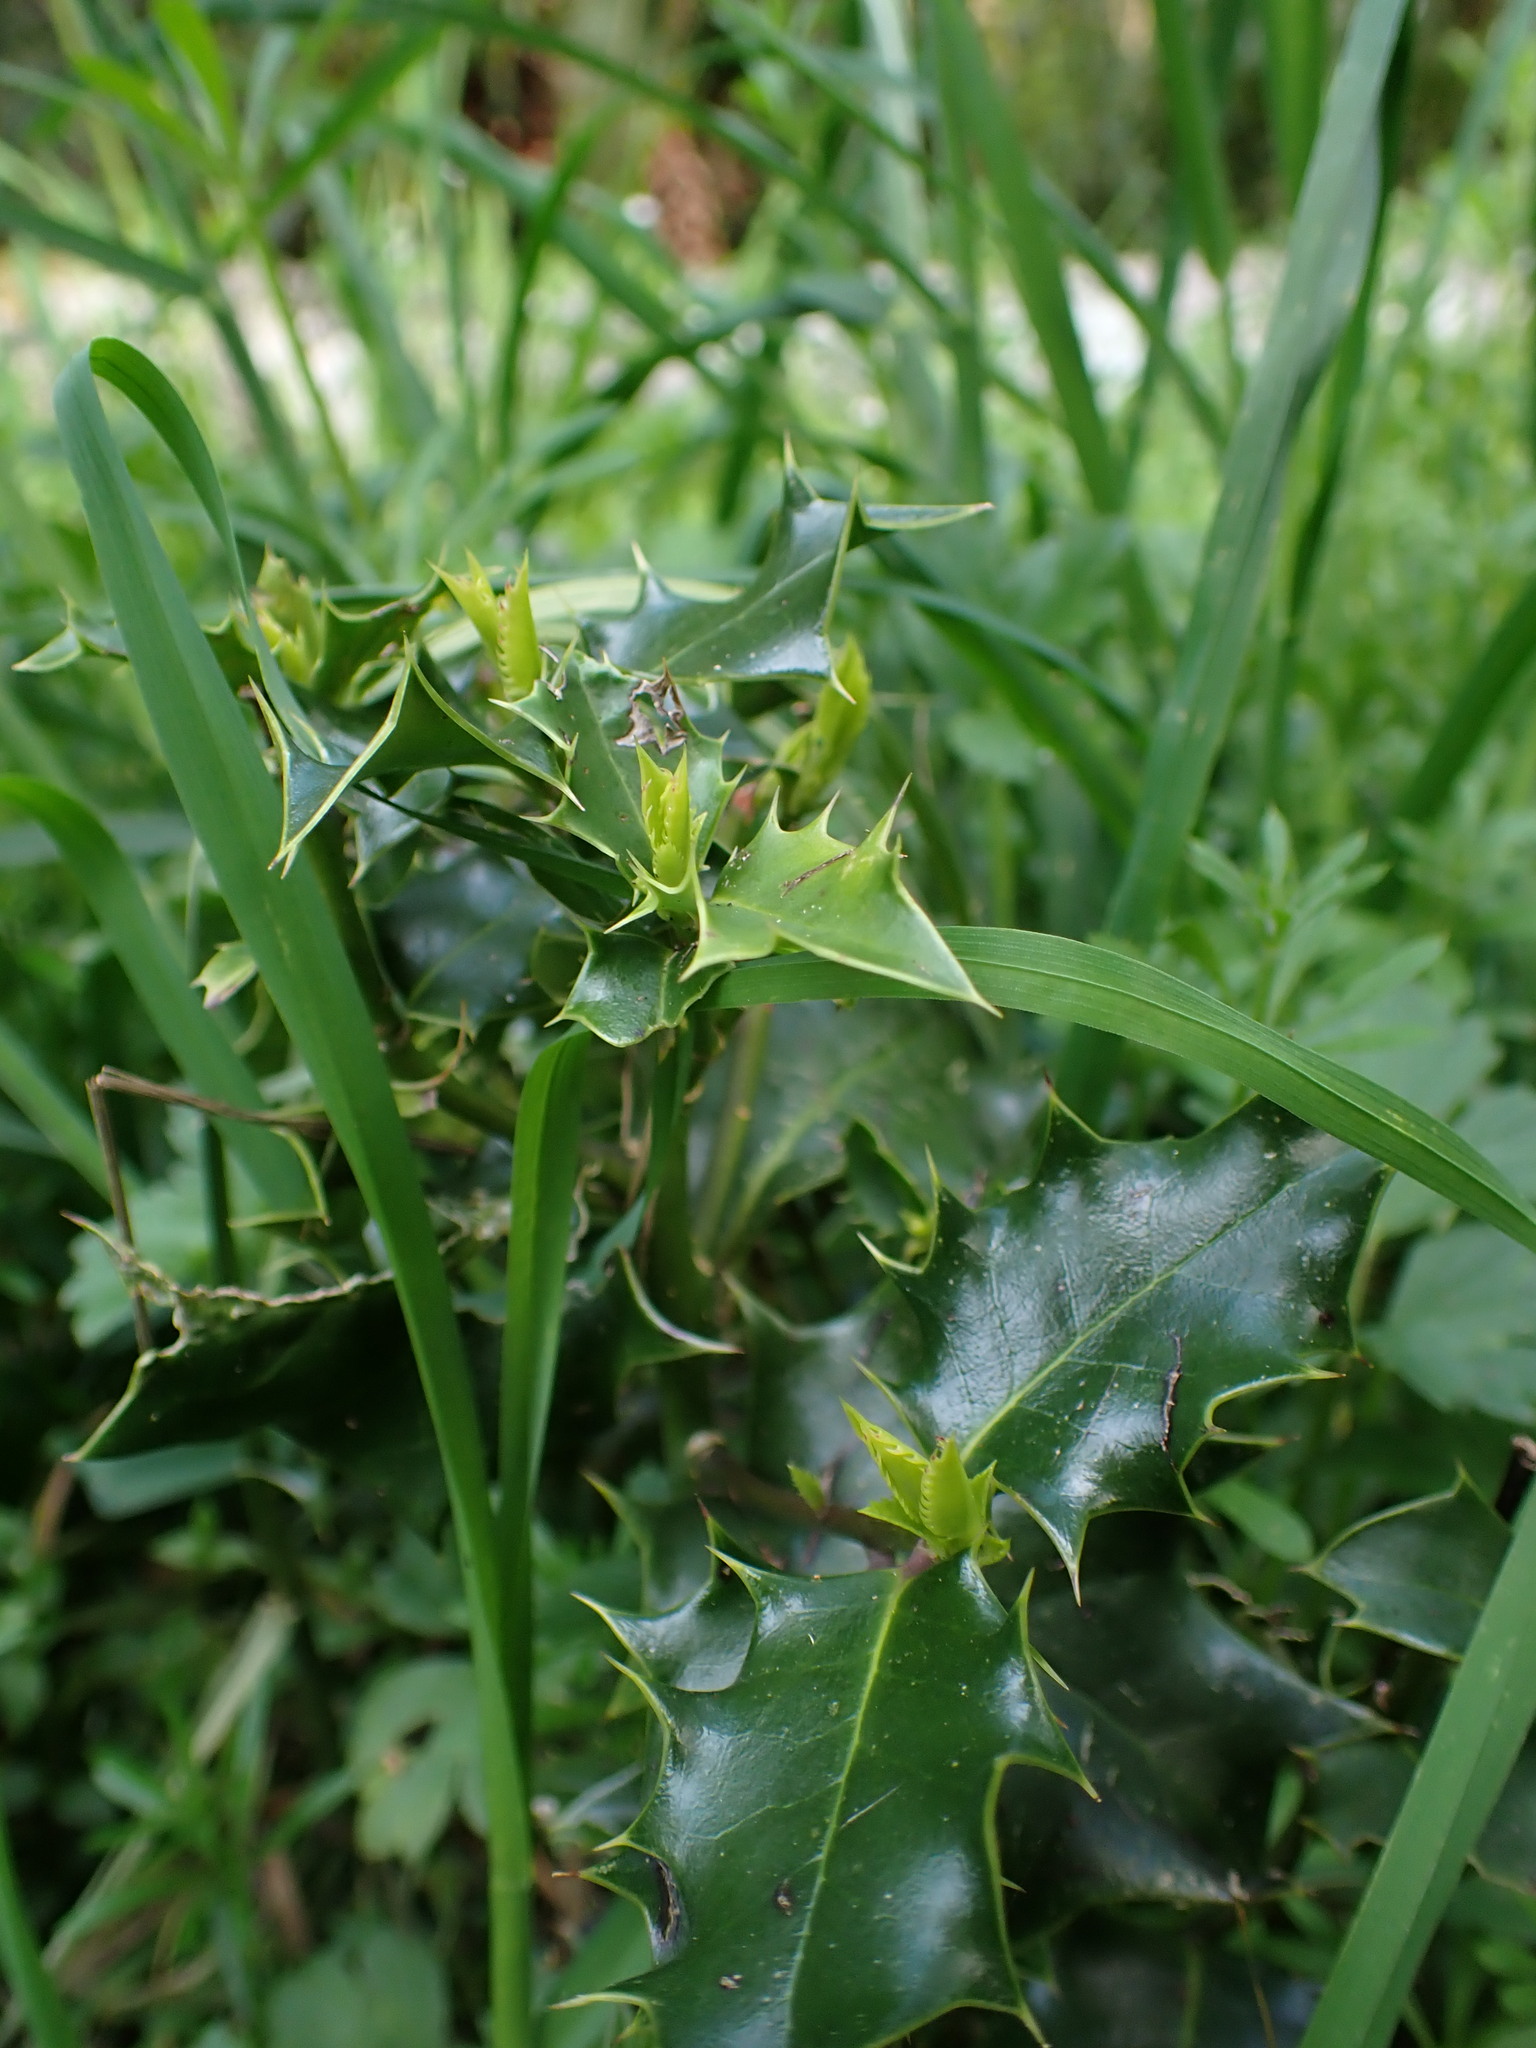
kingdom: Plantae
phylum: Tracheophyta
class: Magnoliopsida
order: Aquifoliales
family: Aquifoliaceae
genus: Ilex
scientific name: Ilex aquifolium
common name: English holly
